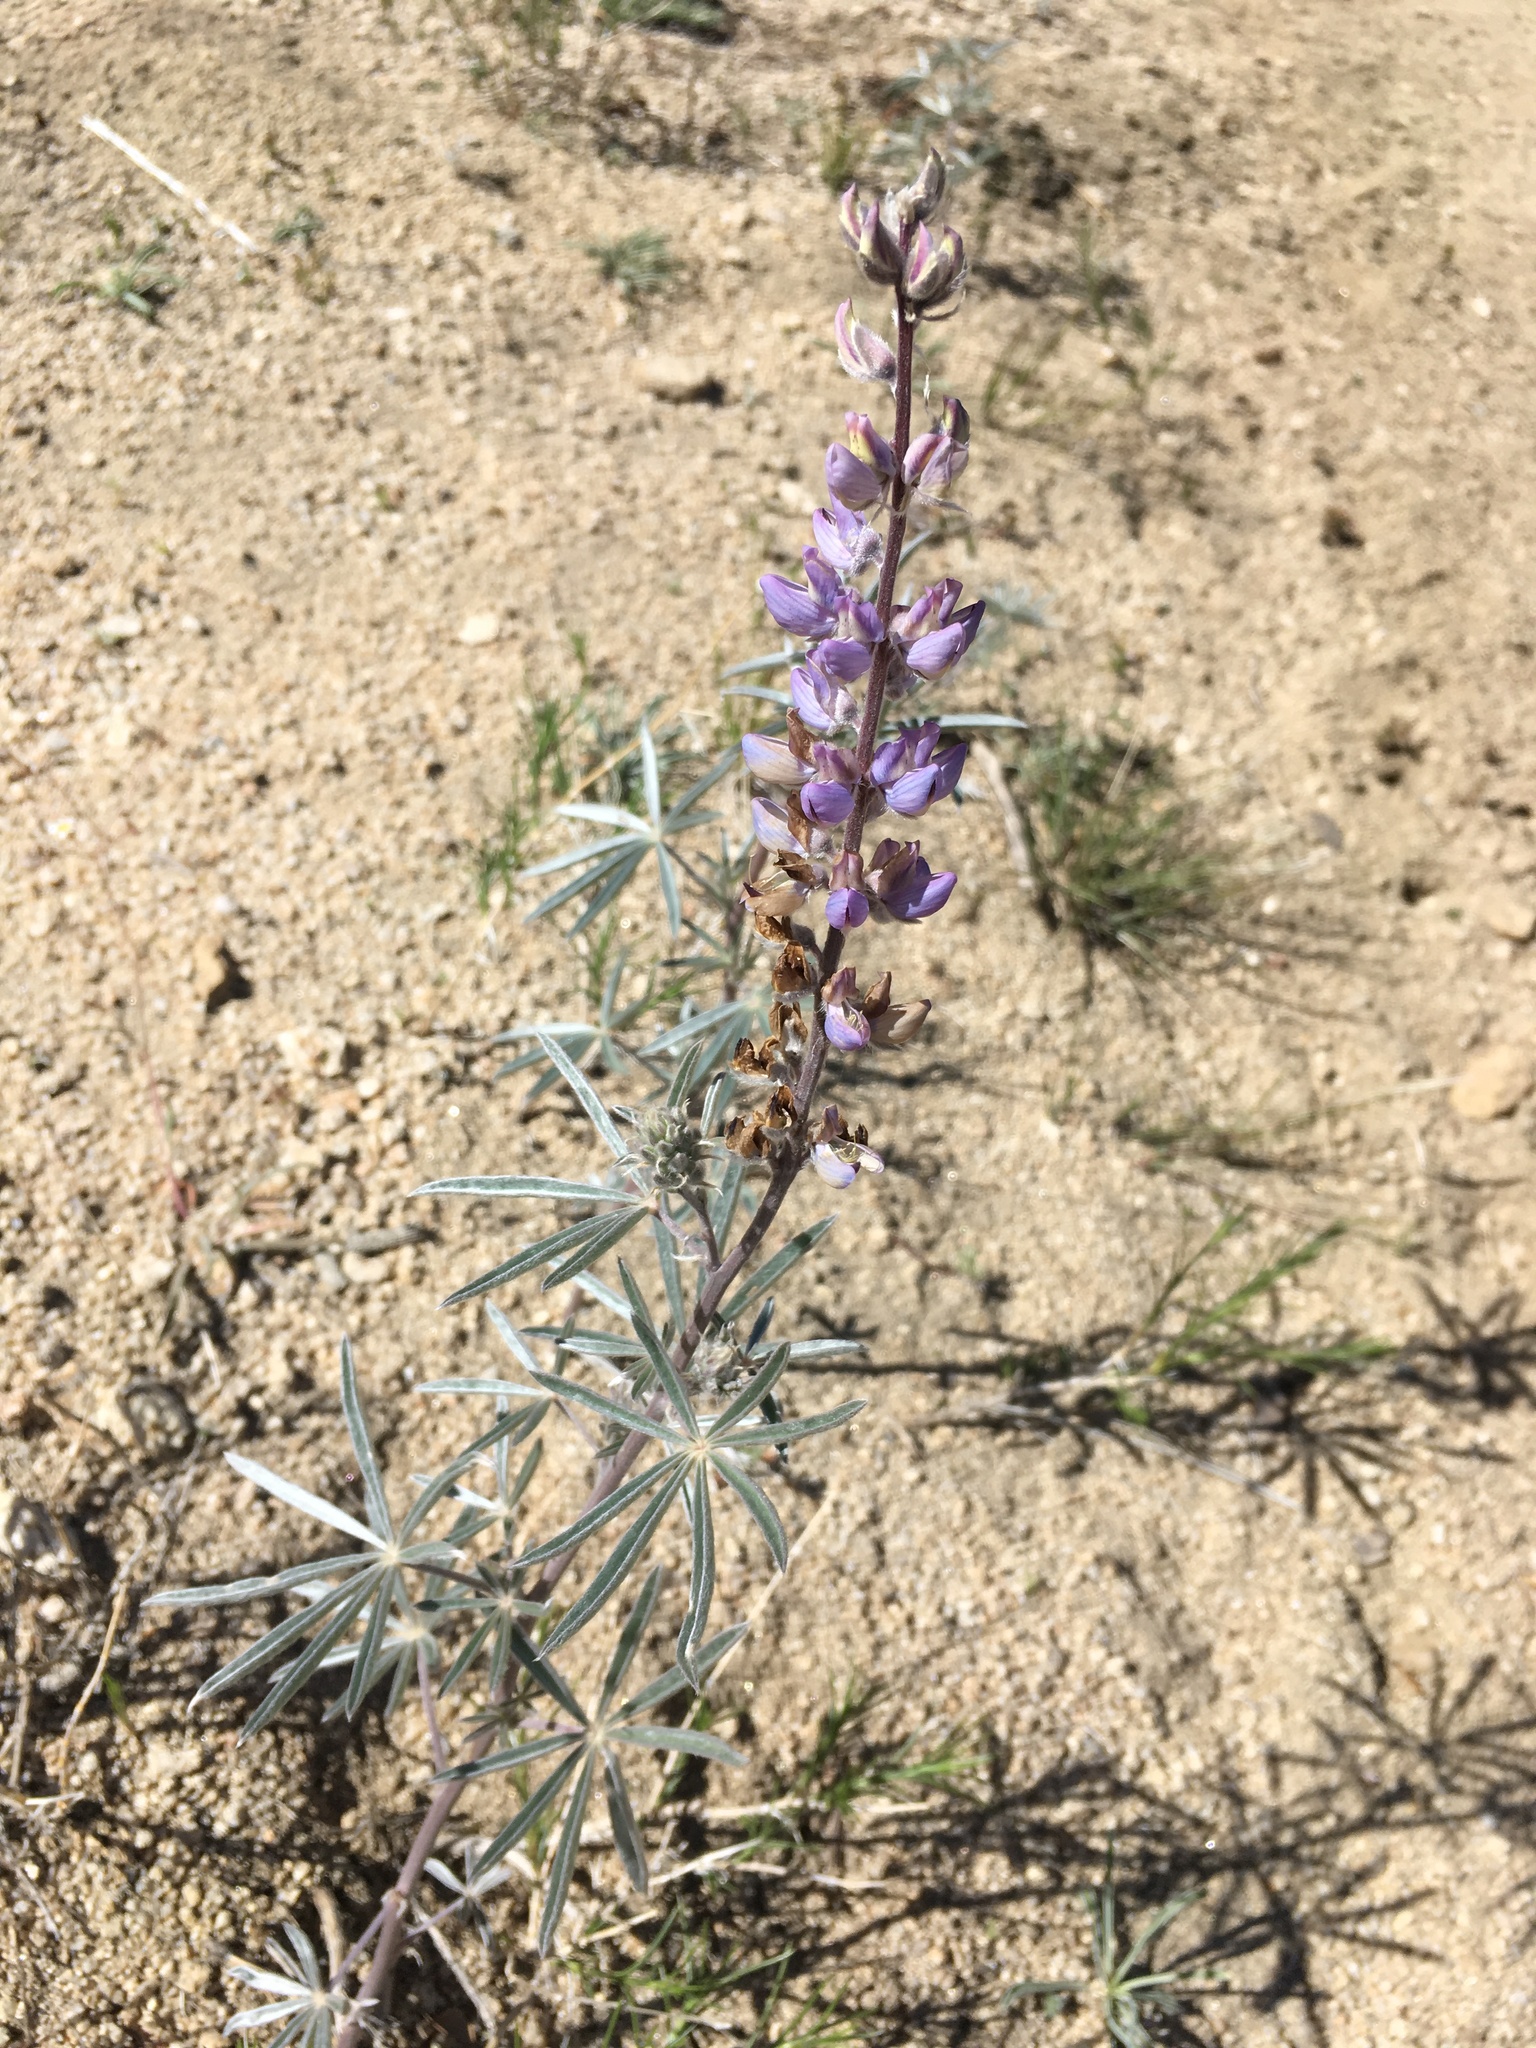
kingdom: Plantae
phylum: Tracheophyta
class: Magnoliopsida
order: Fabales
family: Fabaceae
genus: Lupinus
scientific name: Lupinus elatus
